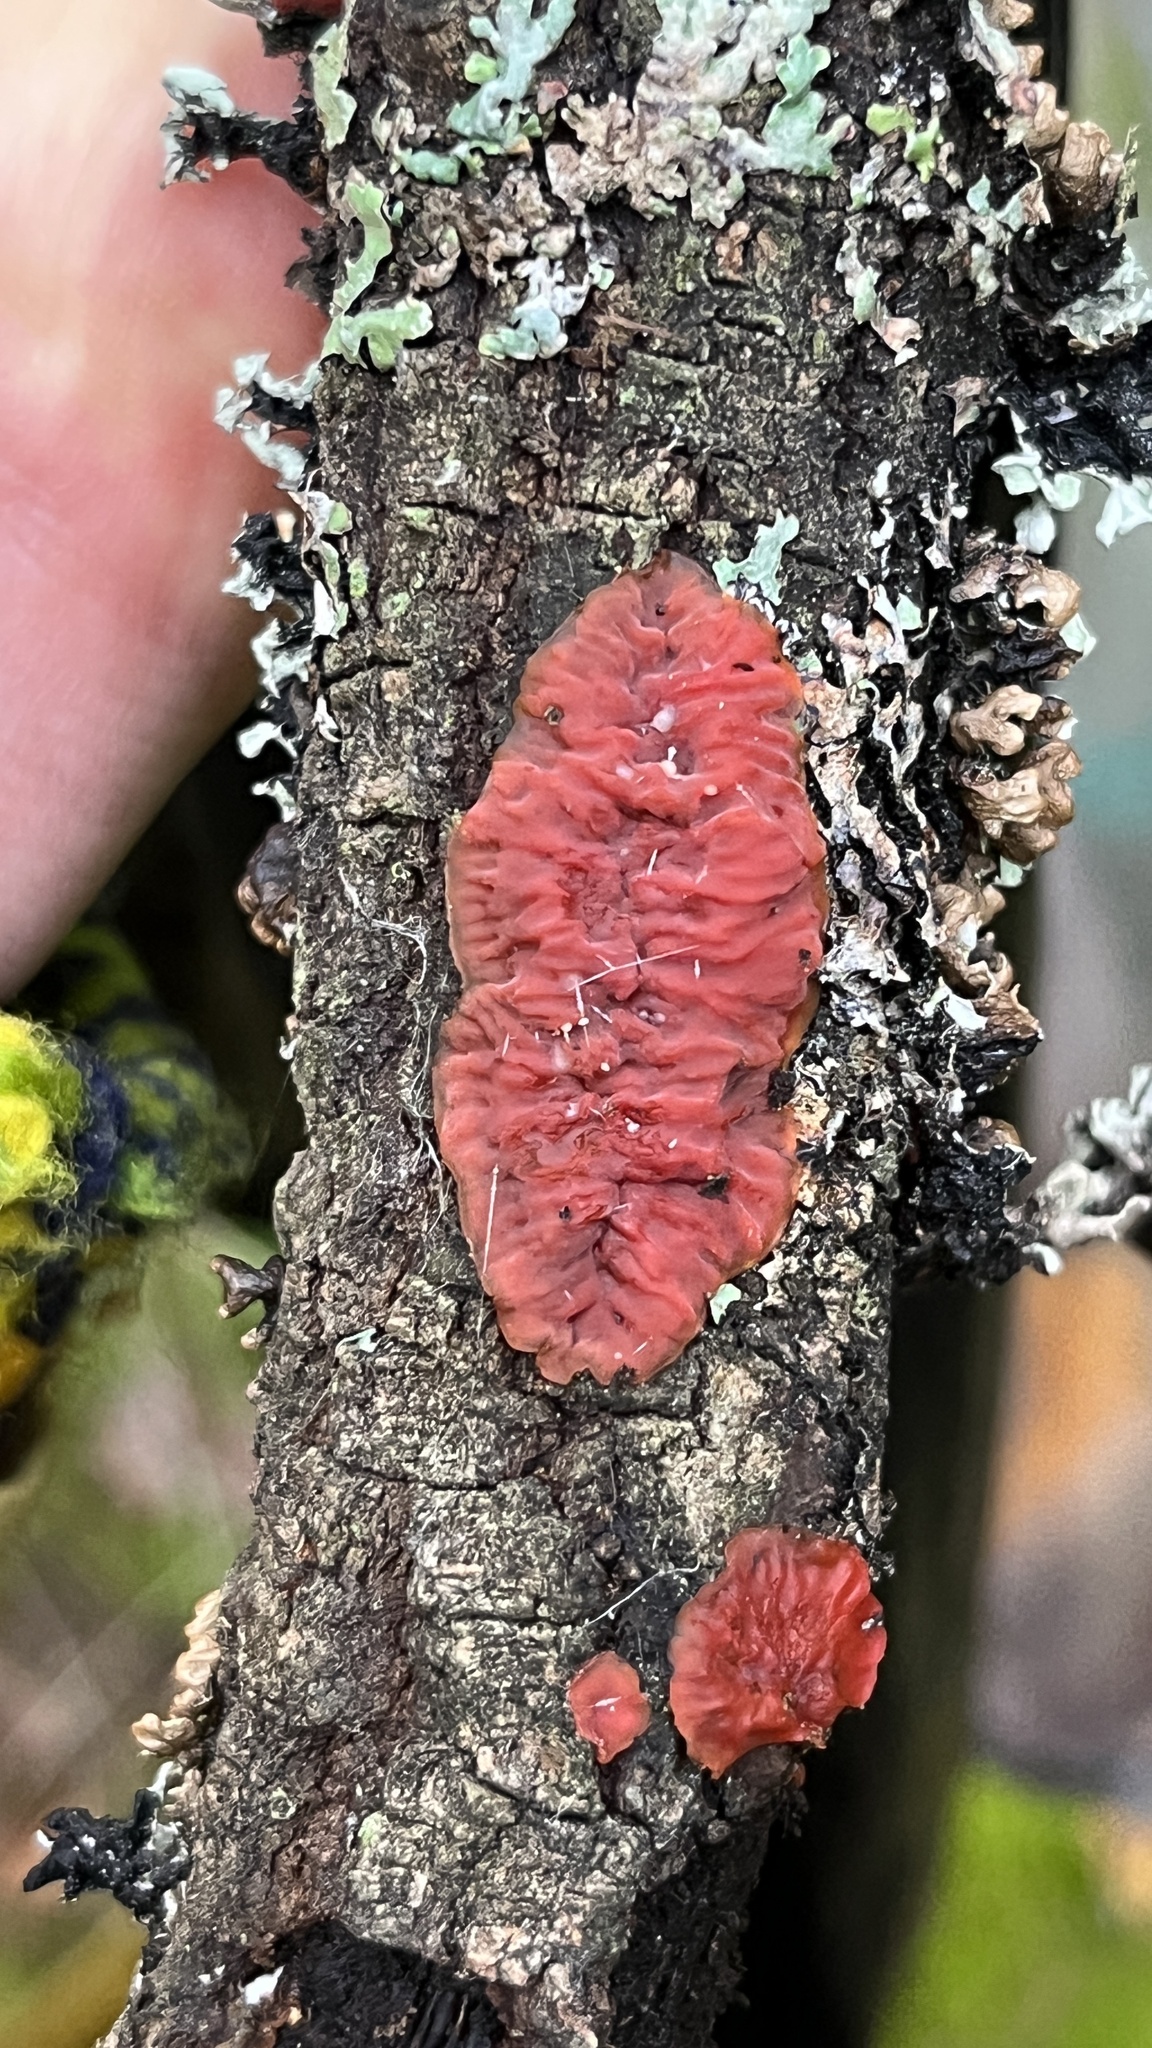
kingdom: Fungi
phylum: Basidiomycota
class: Agaricomycetes
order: Corticiales
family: Vuilleminiaceae
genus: Cytidia
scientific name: Cytidia salicina
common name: Scarlet splash
